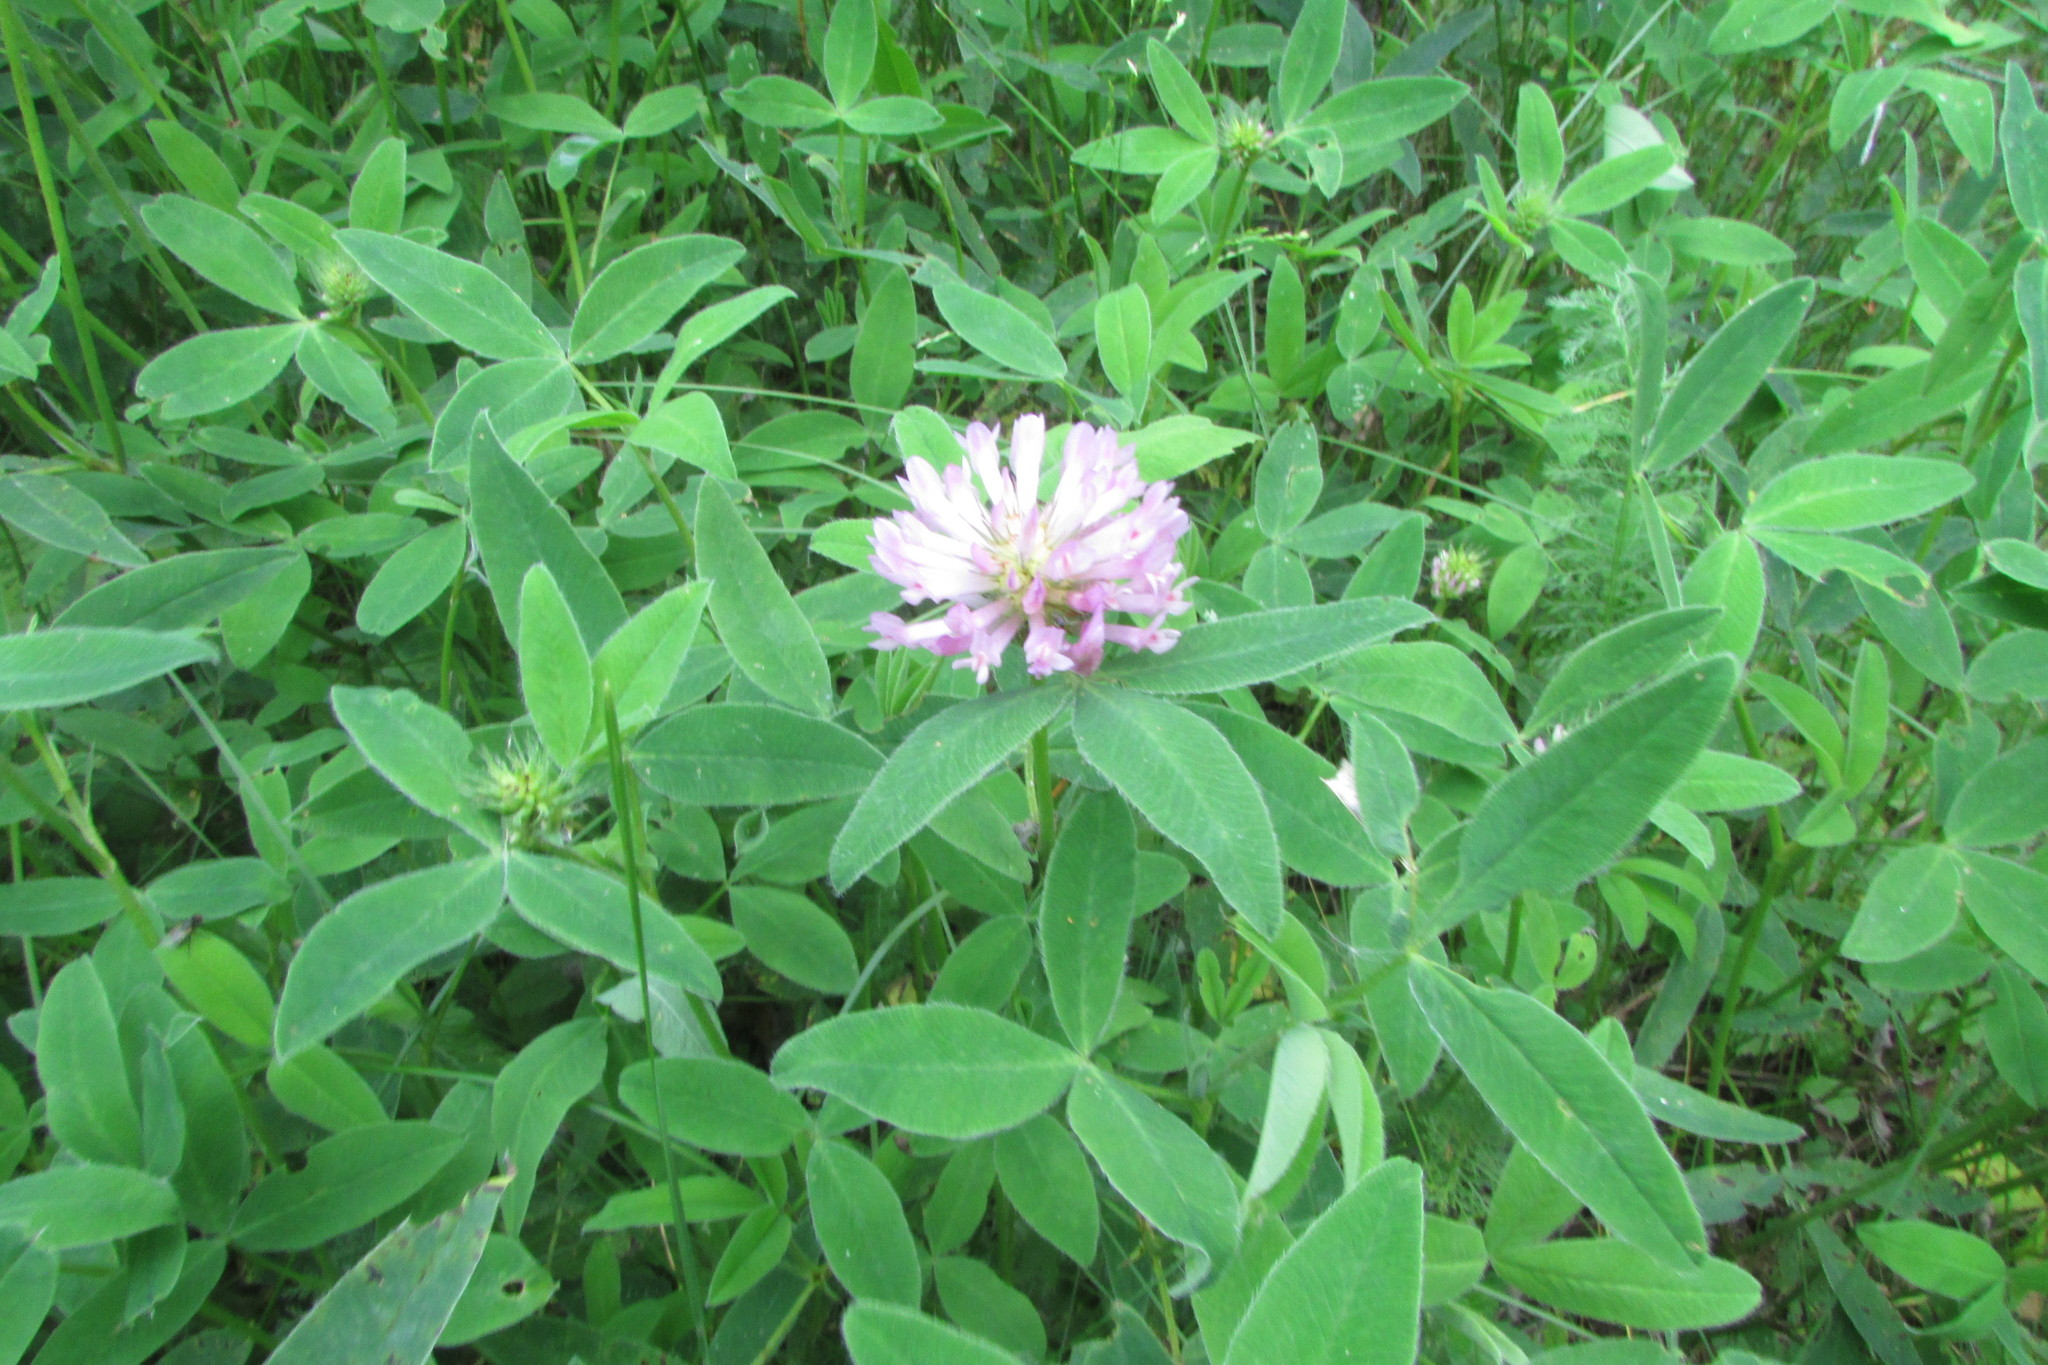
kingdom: Plantae
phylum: Tracheophyta
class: Magnoliopsida
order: Fabales
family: Fabaceae
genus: Trifolium
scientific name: Trifolium medium
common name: Zigzag clover
